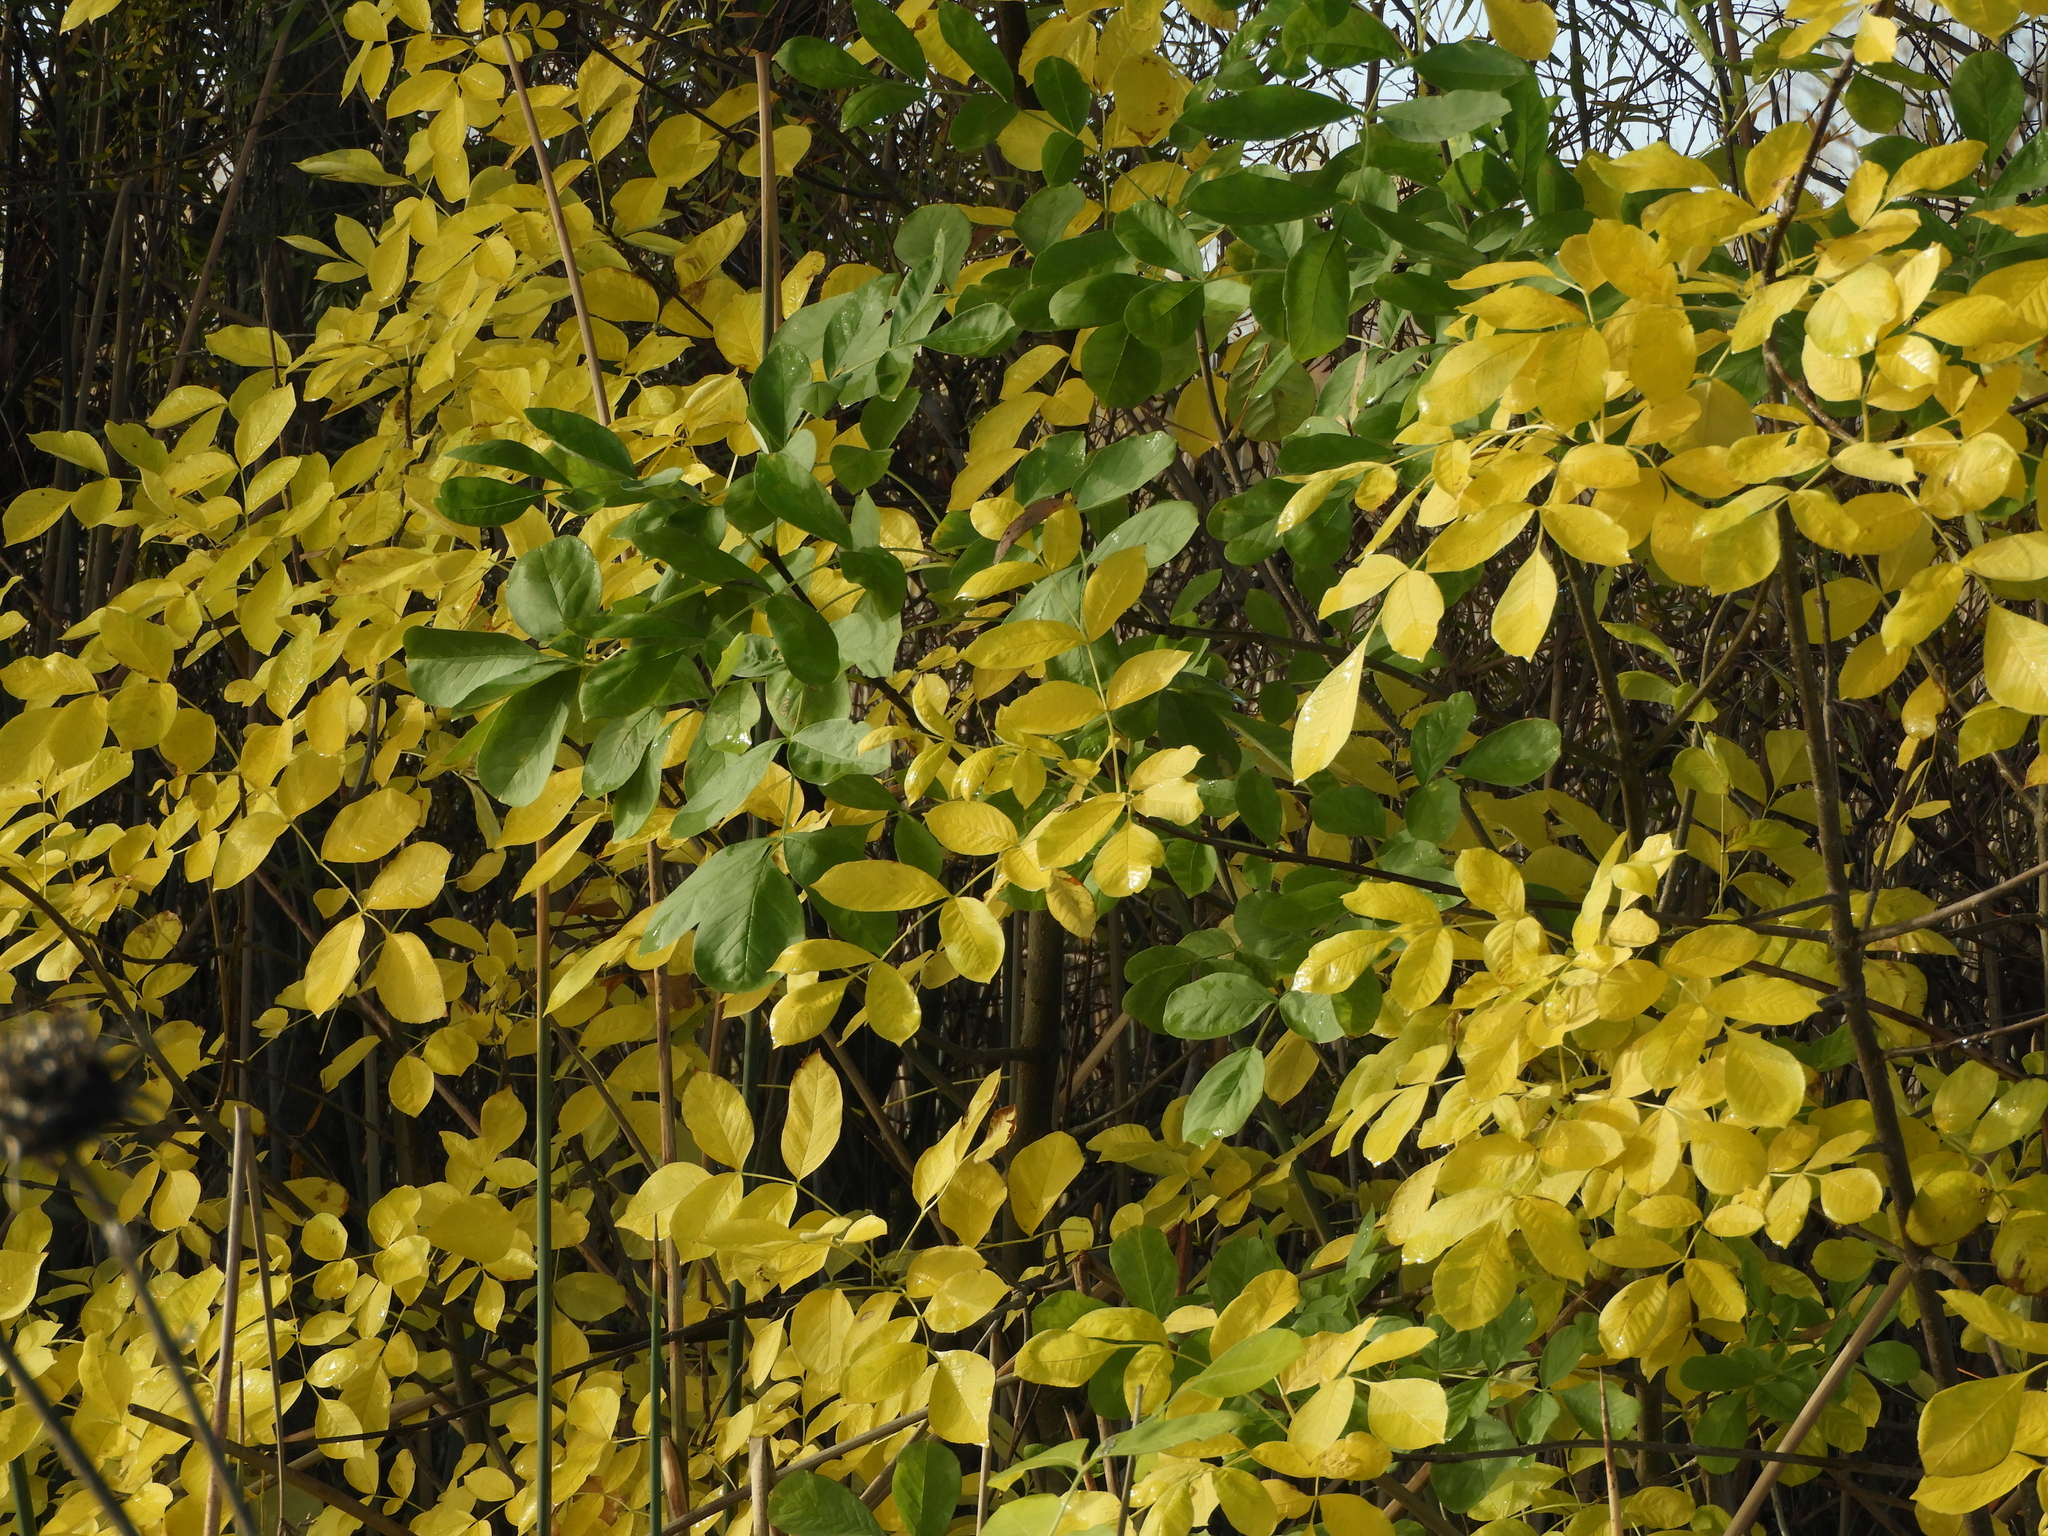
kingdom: Plantae
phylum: Tracheophyta
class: Magnoliopsida
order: Lamiales
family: Oleaceae
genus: Fraxinus
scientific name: Fraxinus latifolia
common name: Oregon ash
